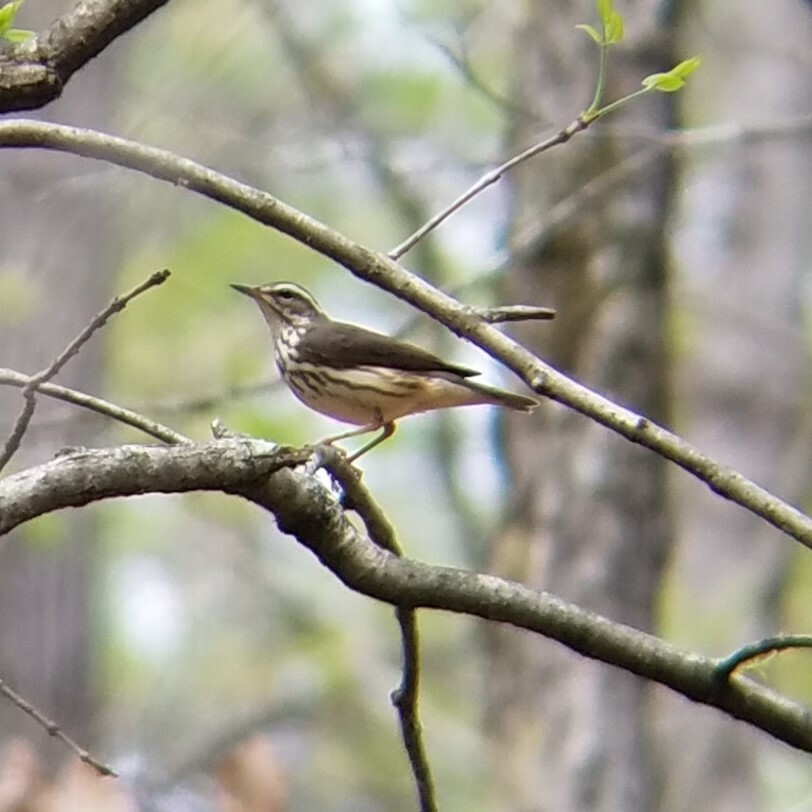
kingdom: Animalia
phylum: Chordata
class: Aves
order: Passeriformes
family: Parulidae
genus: Parkesia
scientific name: Parkesia motacilla
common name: Louisiana waterthrush
